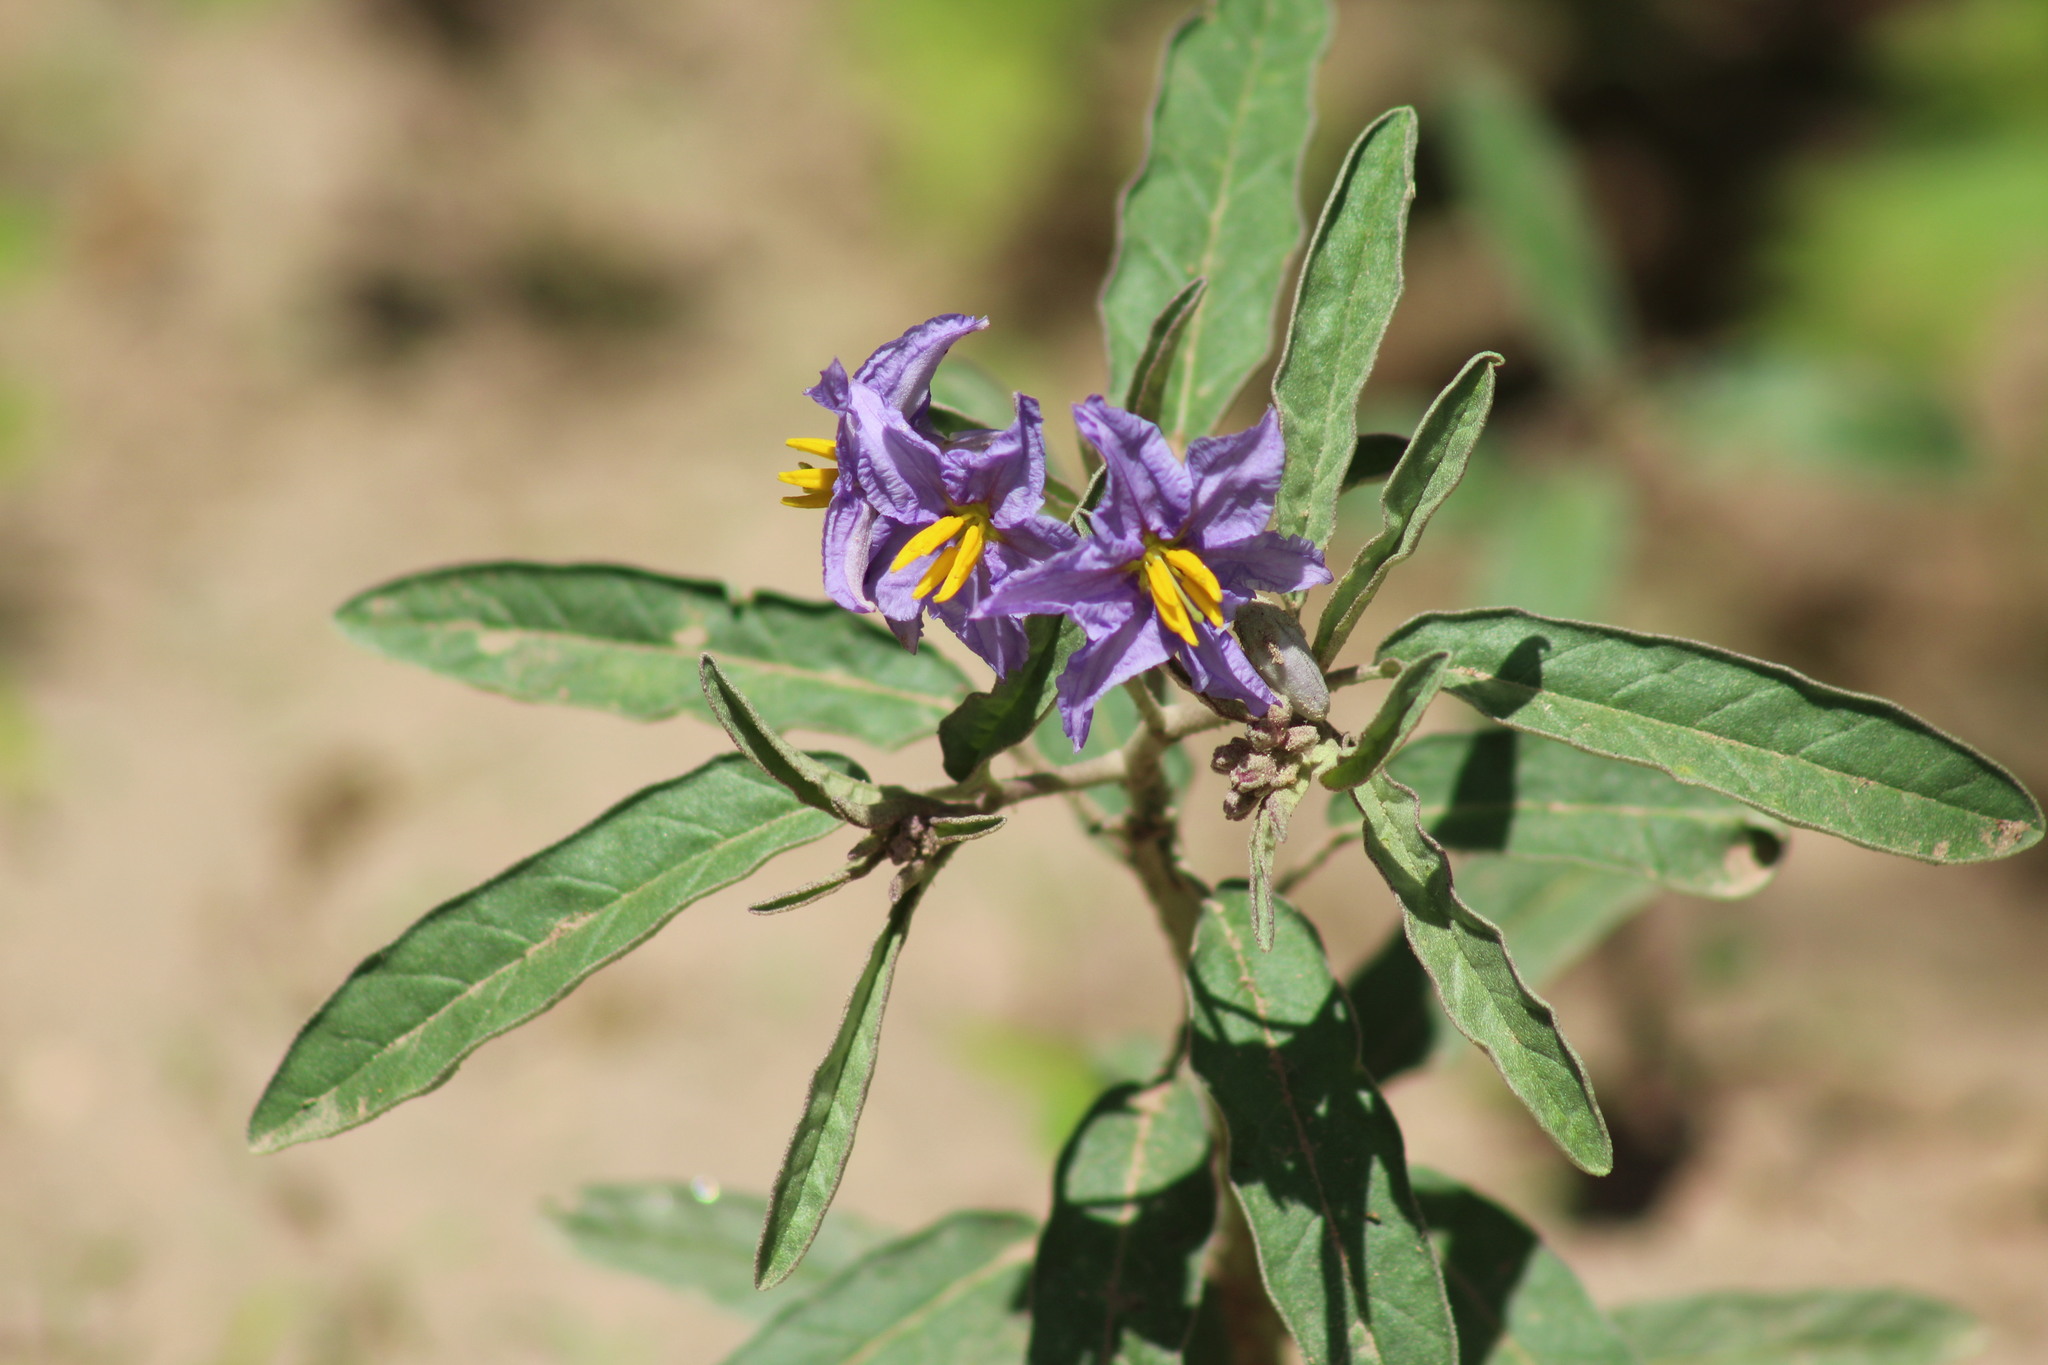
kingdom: Plantae
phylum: Tracheophyta
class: Magnoliopsida
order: Solanales
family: Solanaceae
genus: Solanum
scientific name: Solanum elaeagnifolium
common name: Silverleaf nightshade
